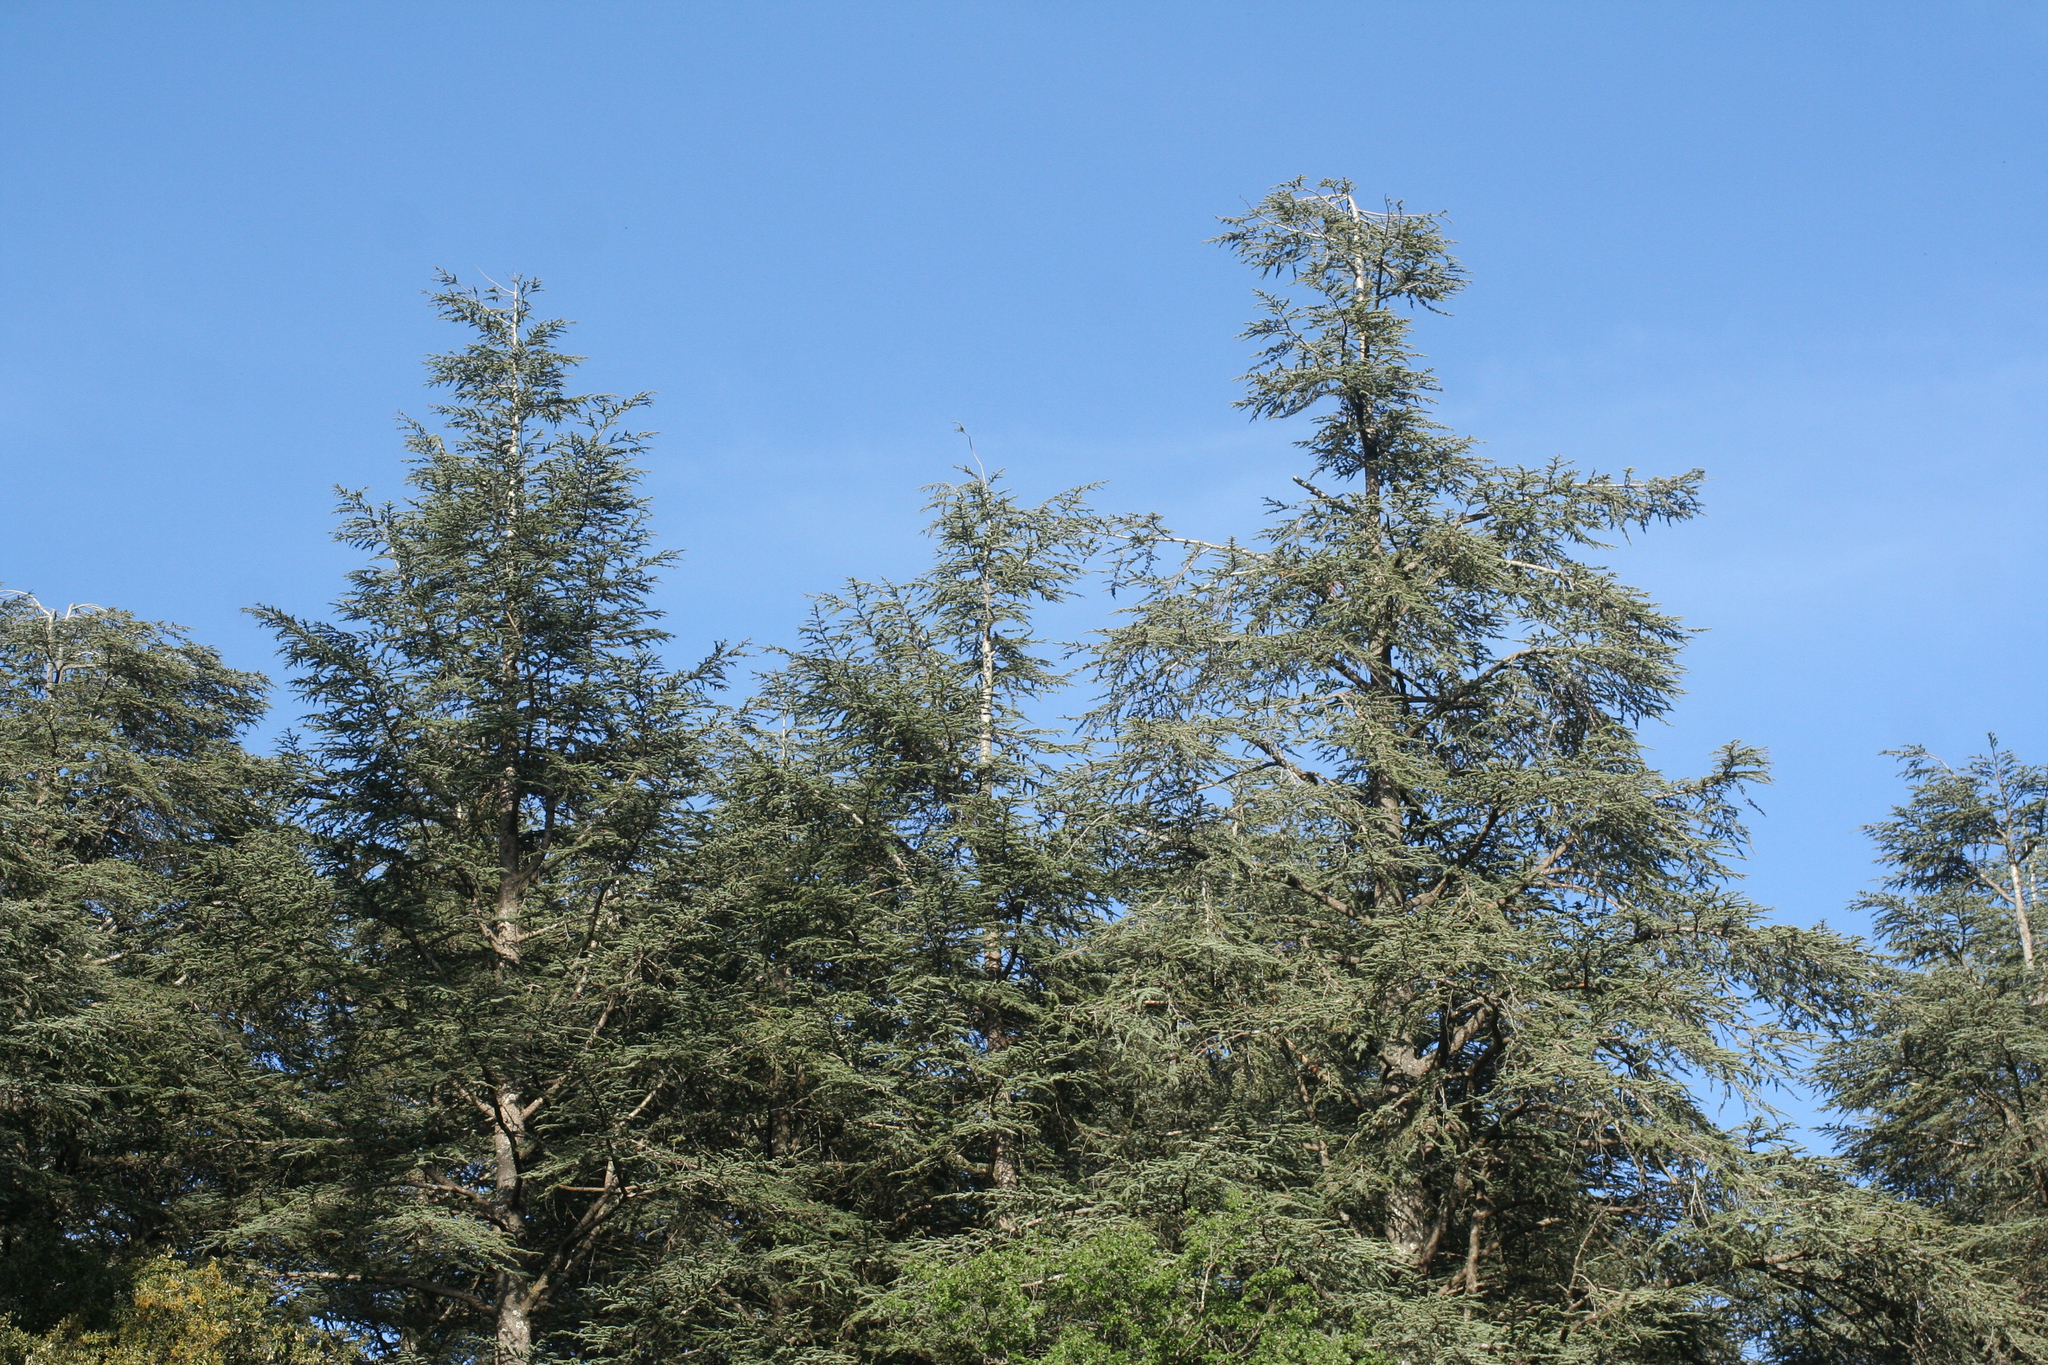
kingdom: Plantae
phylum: Tracheophyta
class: Pinopsida
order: Pinales
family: Pinaceae
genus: Cedrus
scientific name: Cedrus atlantica
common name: Atlas cedar
